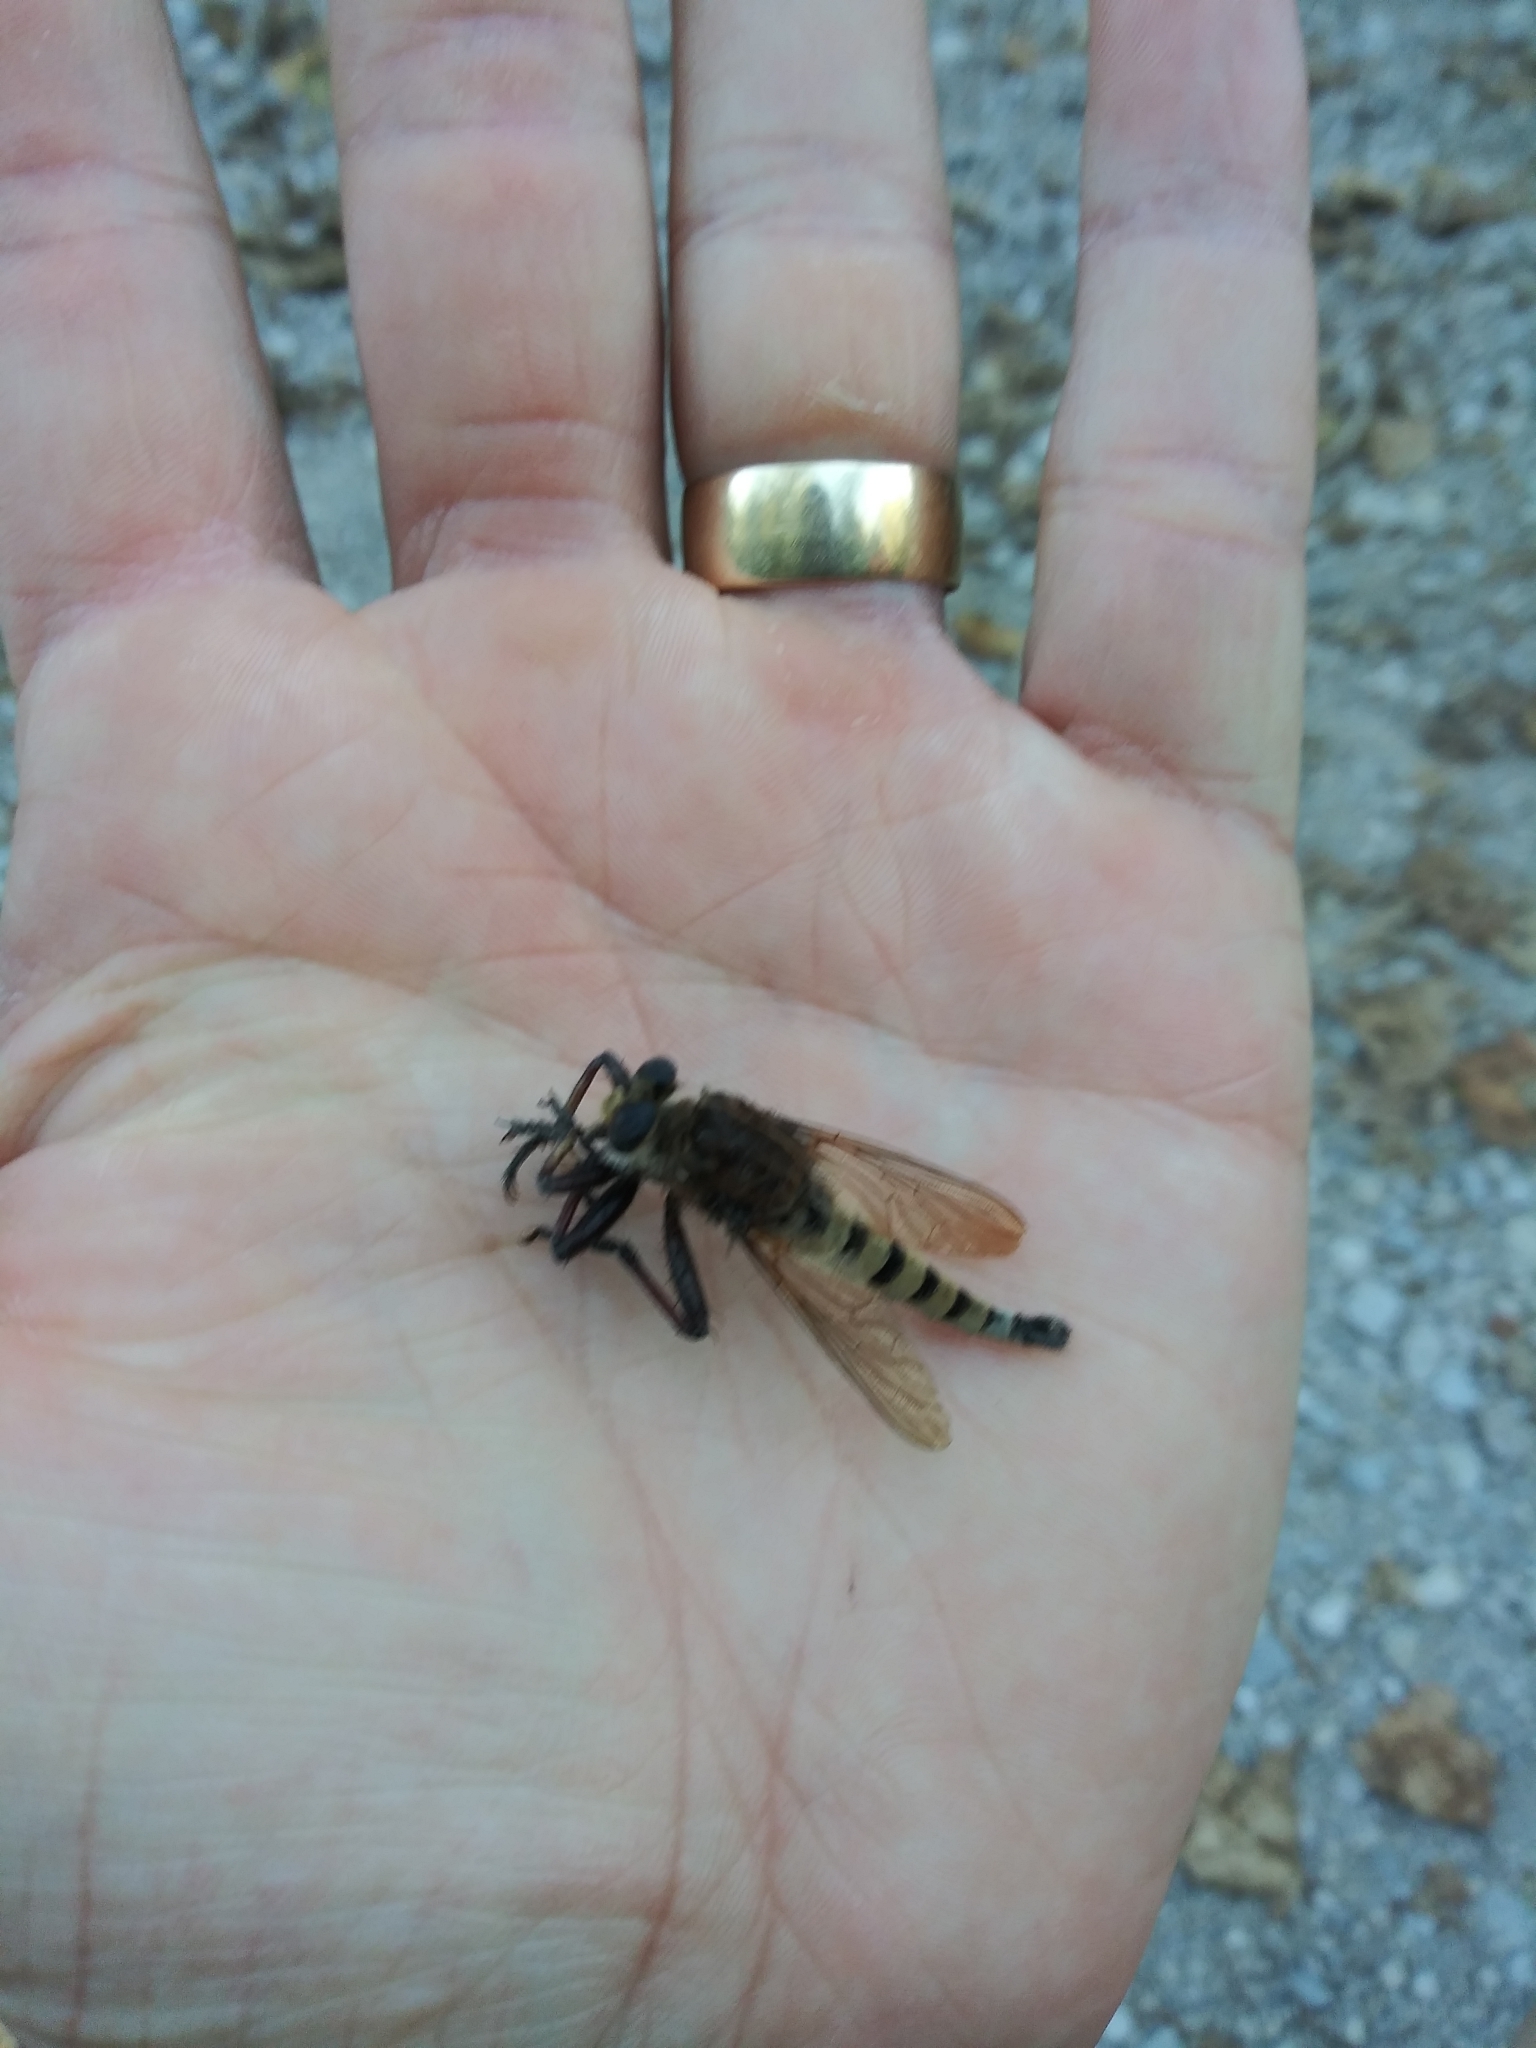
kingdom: Animalia
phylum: Arthropoda
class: Insecta
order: Diptera
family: Asilidae
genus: Promachus
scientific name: Promachus hinei
